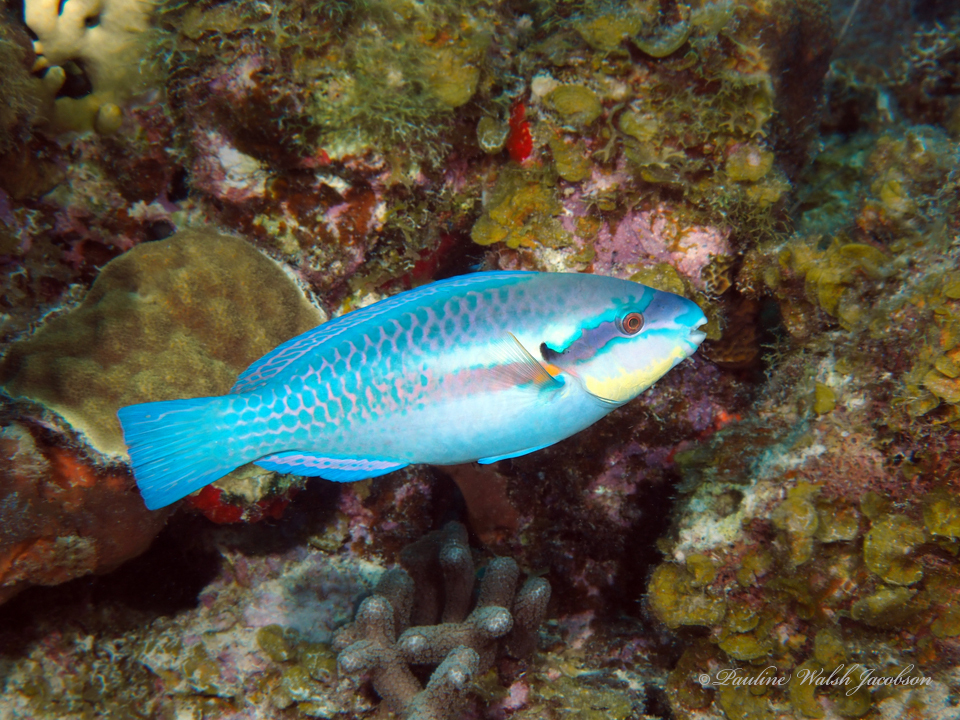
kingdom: Animalia
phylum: Chordata
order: Perciformes
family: Scaridae
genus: Scarus
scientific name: Scarus iseri
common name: Striped parrotfish
